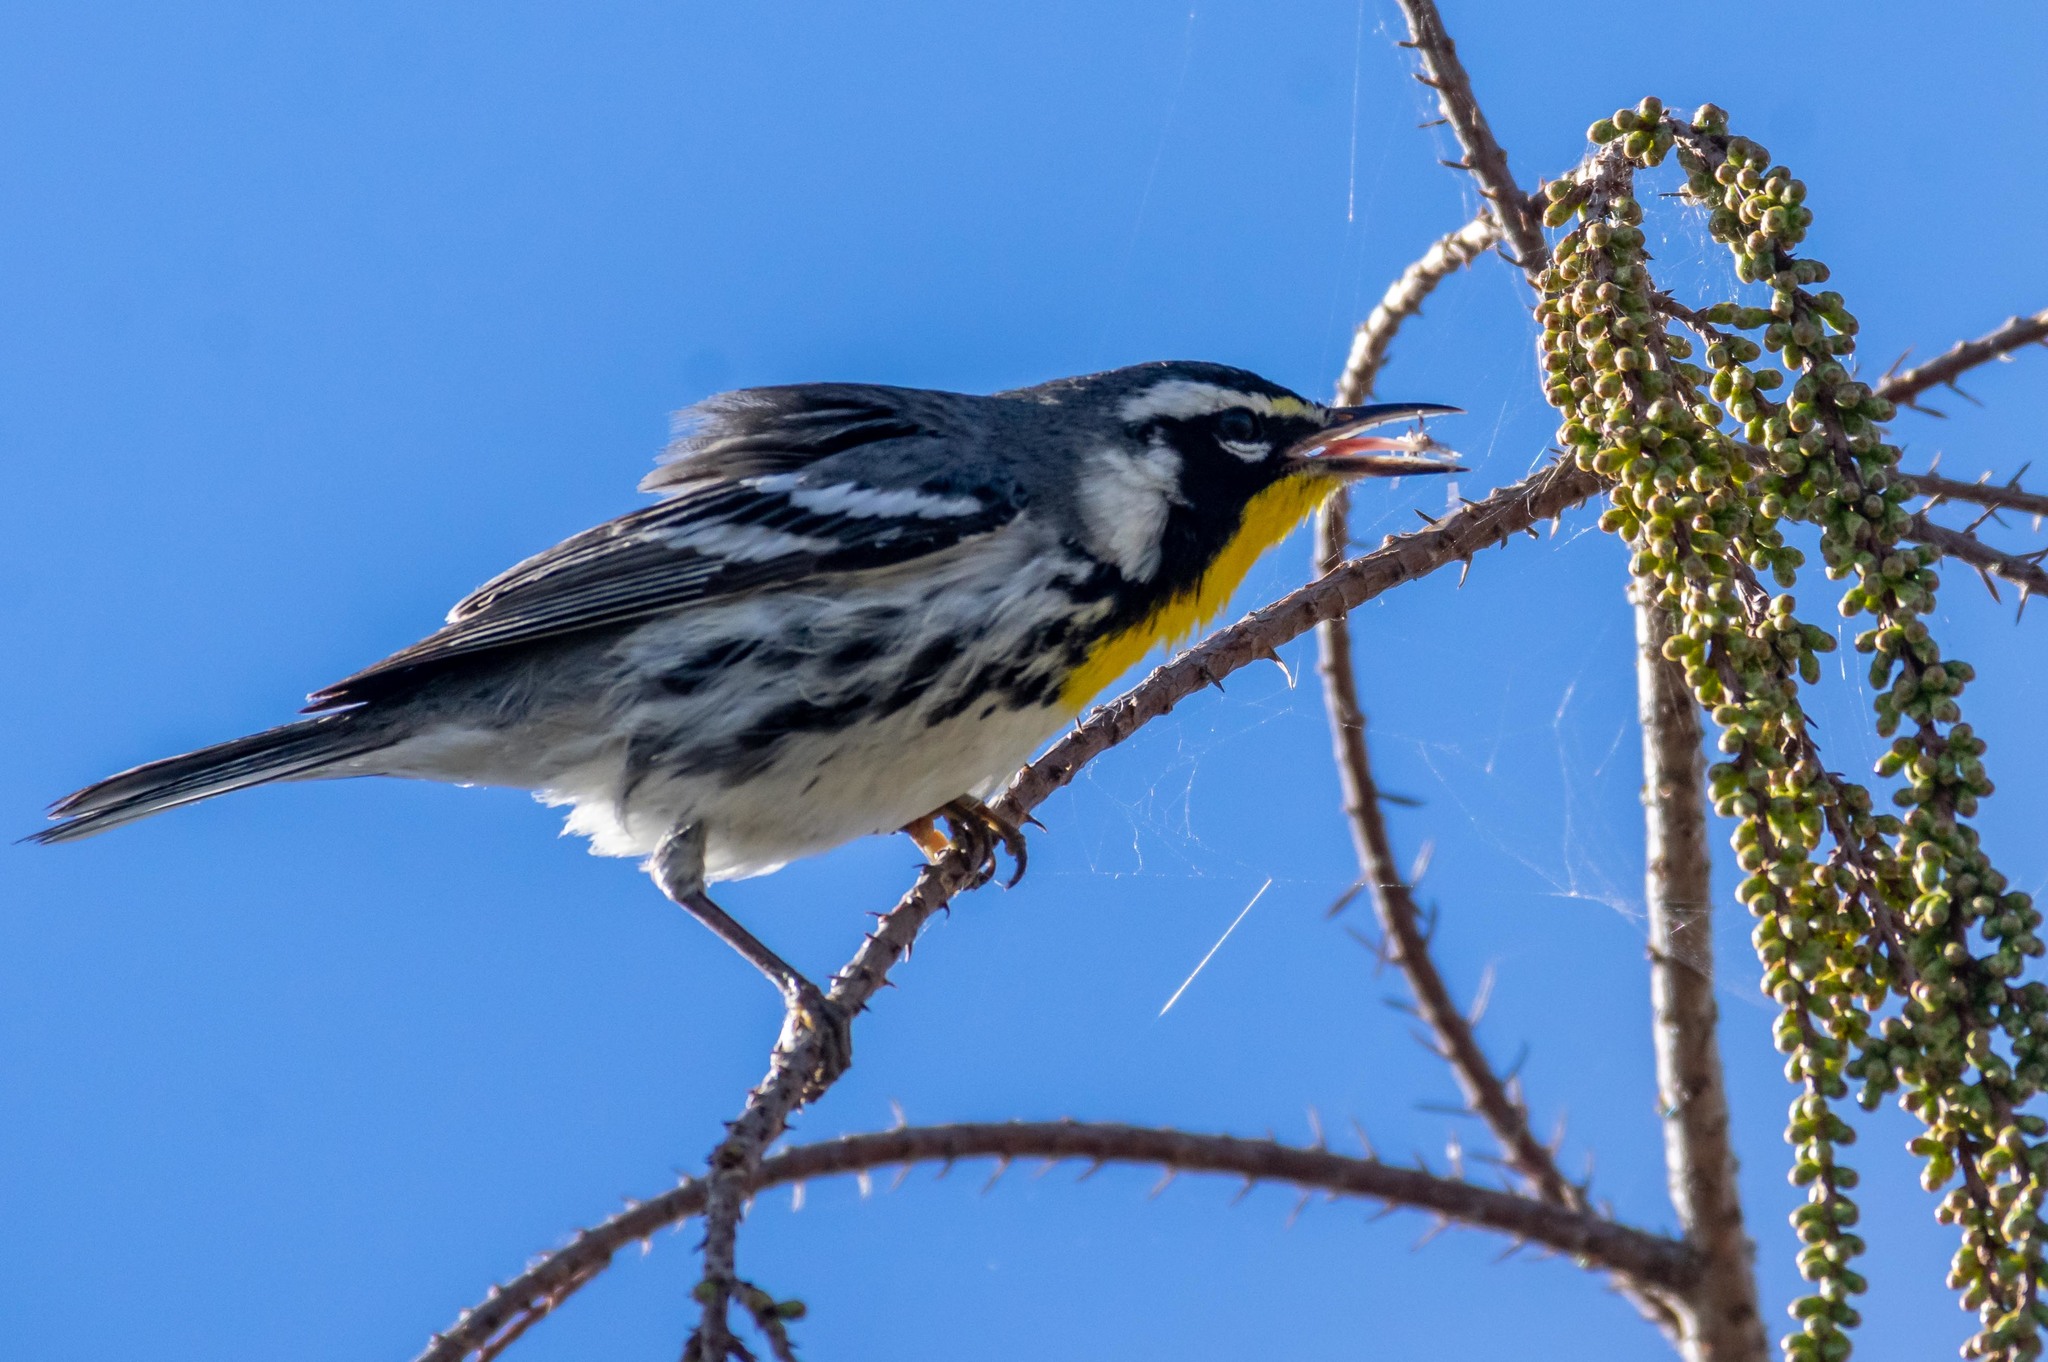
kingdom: Animalia
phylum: Chordata
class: Aves
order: Passeriformes
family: Parulidae
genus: Setophaga
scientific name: Setophaga dominica
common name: Yellow-throated warbler
